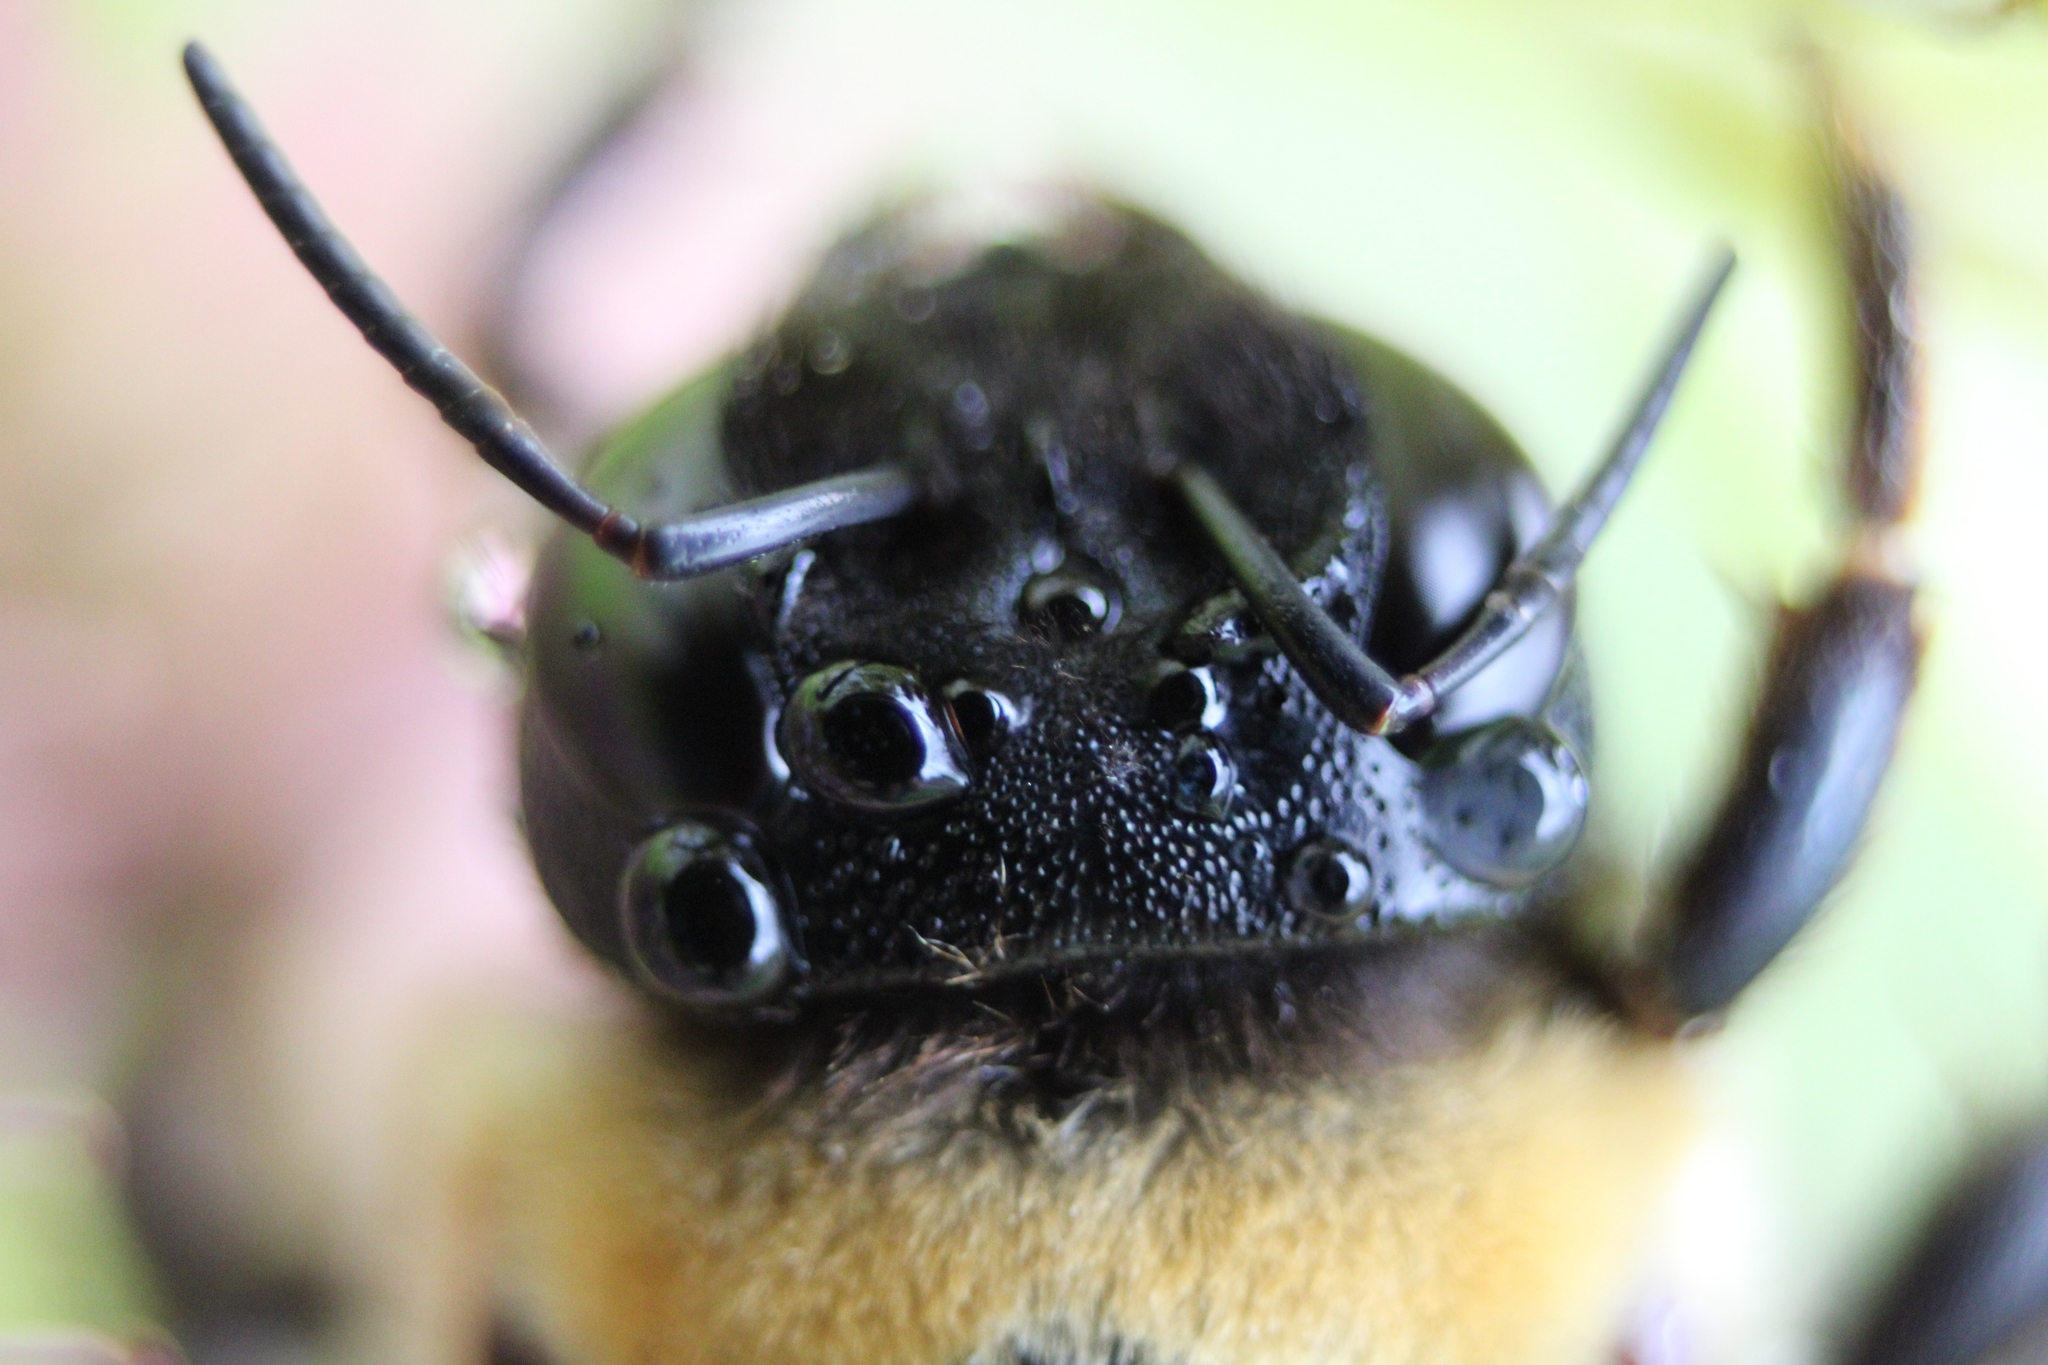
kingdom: Animalia
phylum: Arthropoda
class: Insecta
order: Hymenoptera
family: Apidae
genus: Xylocopa
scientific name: Xylocopa virginica
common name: Carpenter bee
